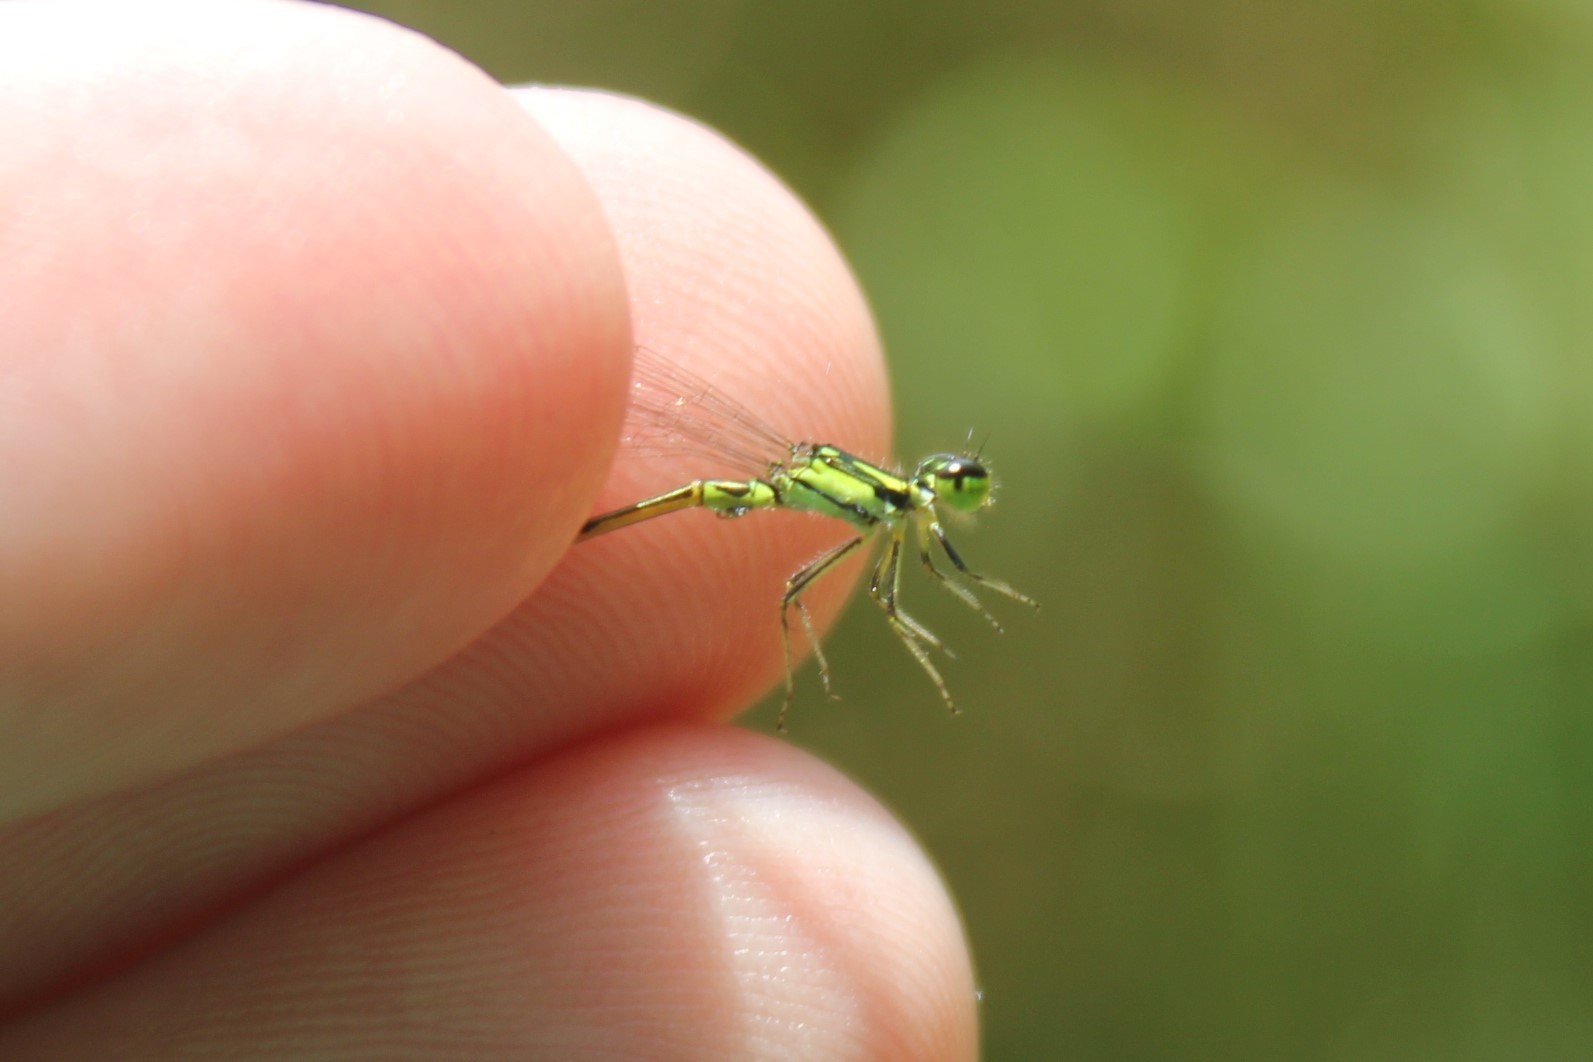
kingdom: Animalia
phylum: Arthropoda
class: Insecta
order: Odonata
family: Coenagrionidae
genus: Ischnura
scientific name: Ischnura posita
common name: Fragile forktail
